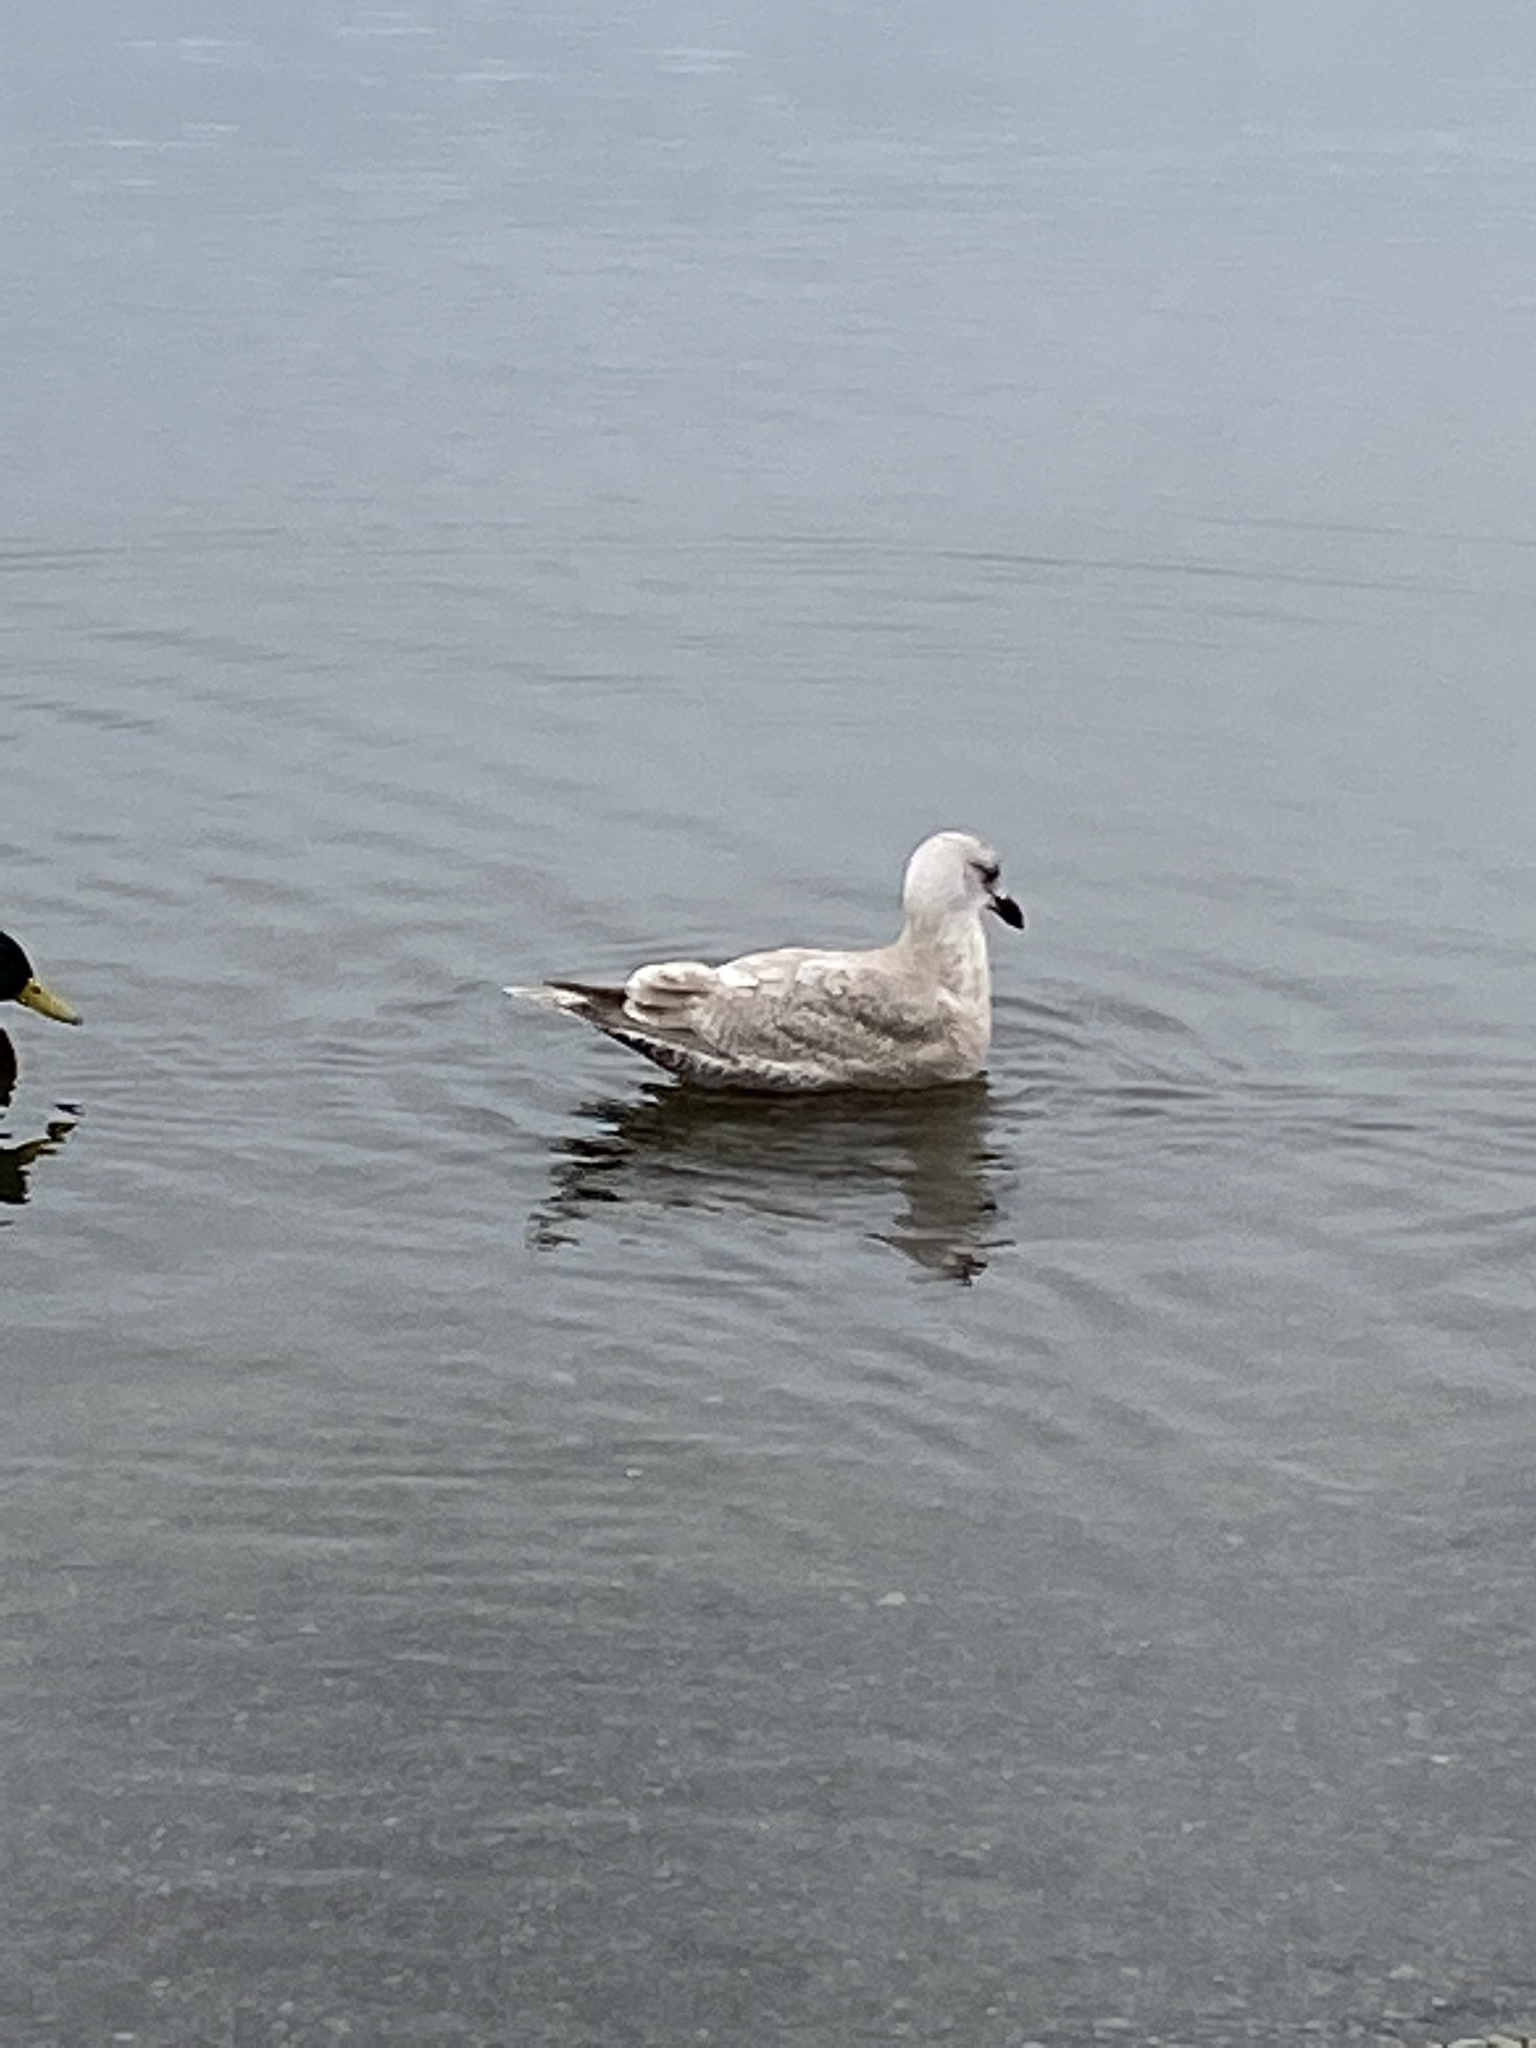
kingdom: Animalia
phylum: Chordata
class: Aves
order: Charadriiformes
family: Laridae
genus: Larus
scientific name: Larus glaucescens
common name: Glaucous-winged gull
